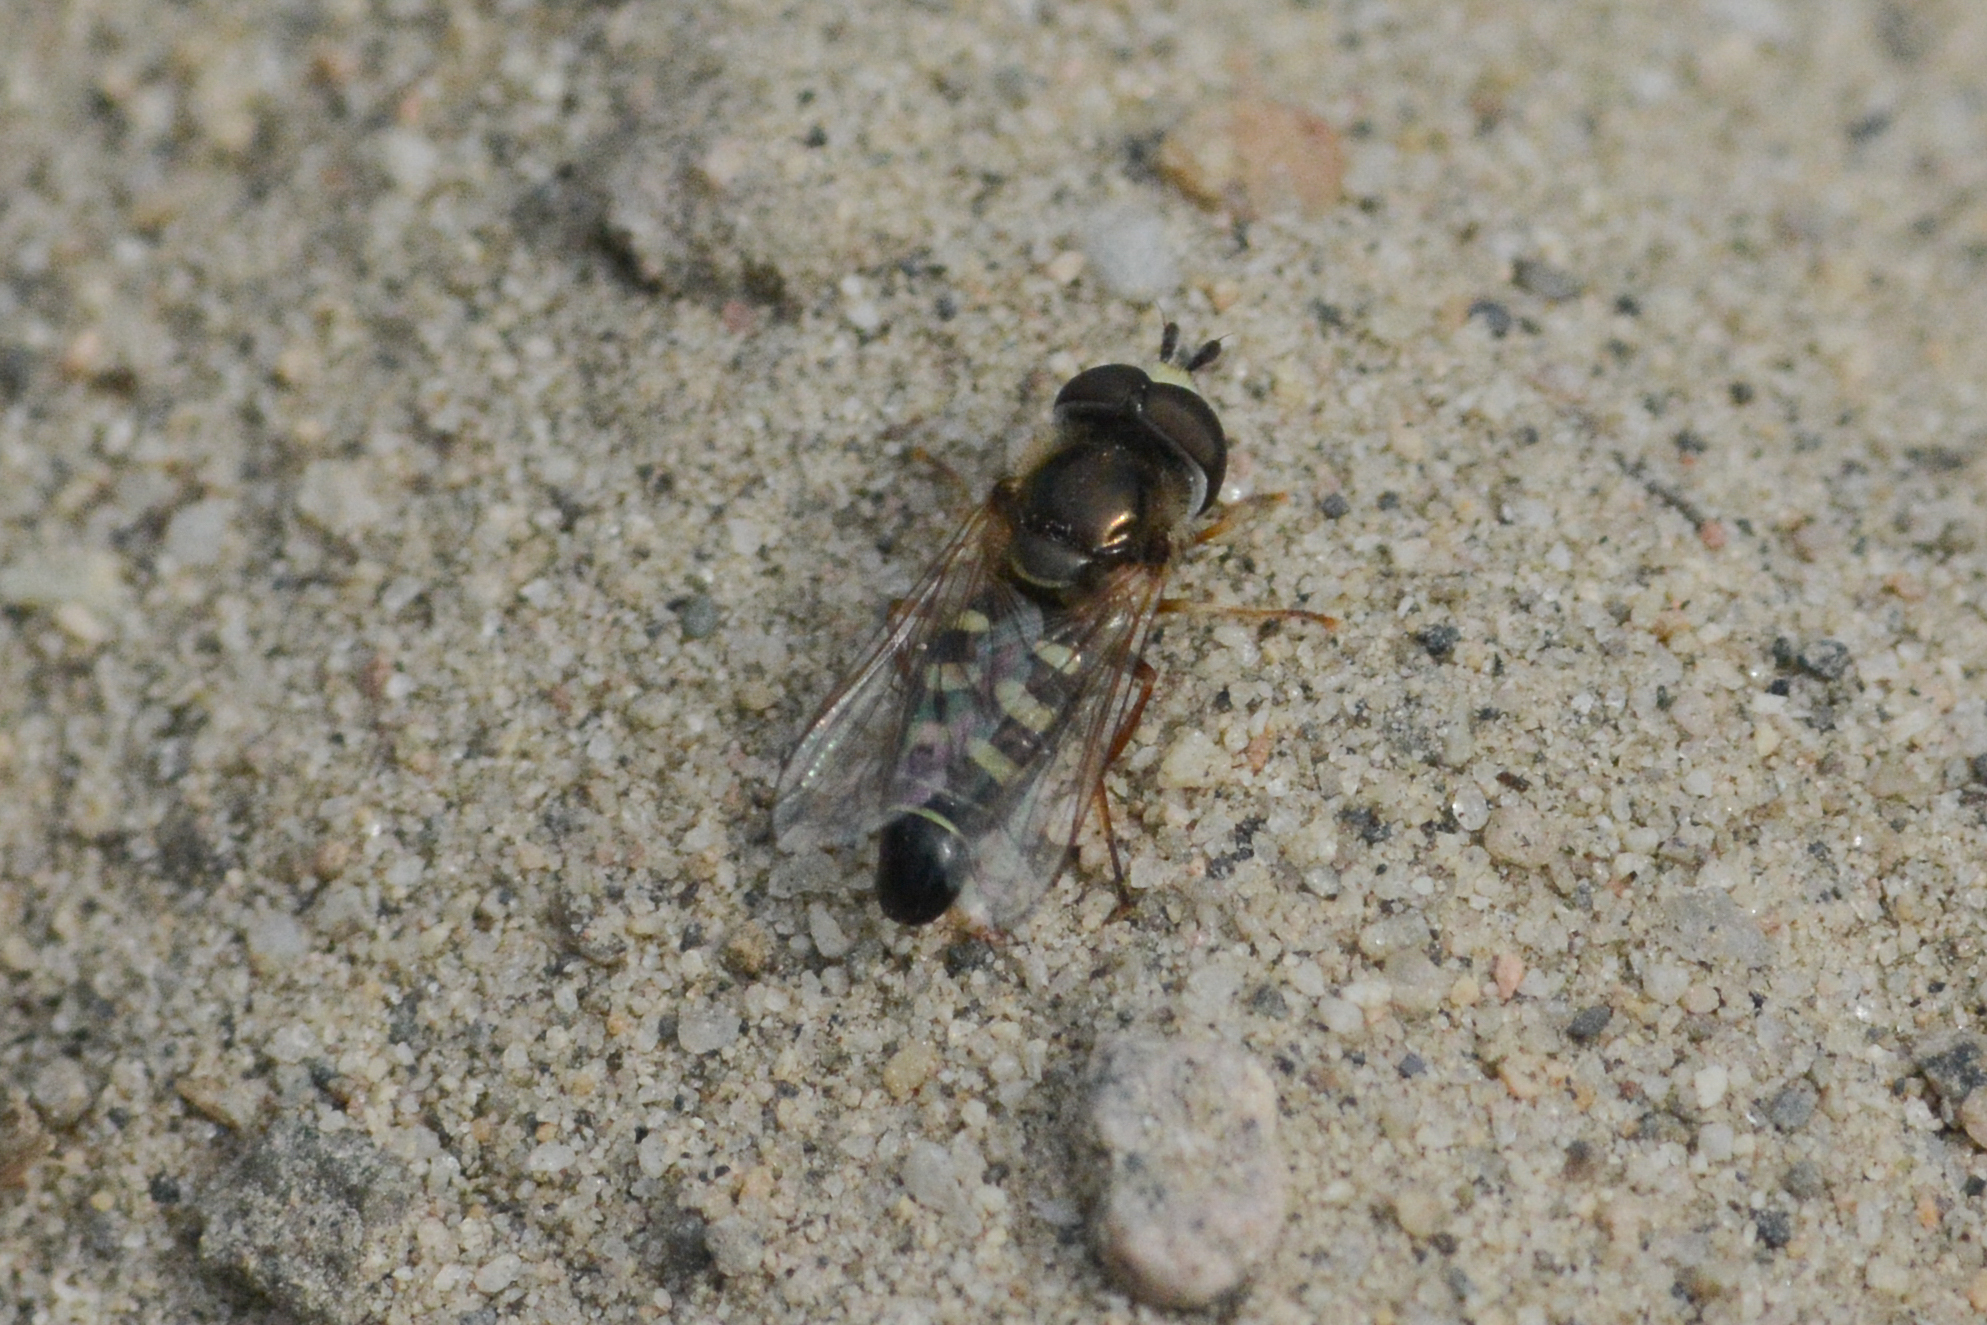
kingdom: Animalia
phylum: Arthropoda
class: Insecta
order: Diptera
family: Syrphidae
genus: Eupeodes
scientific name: Eupeodes volucris
